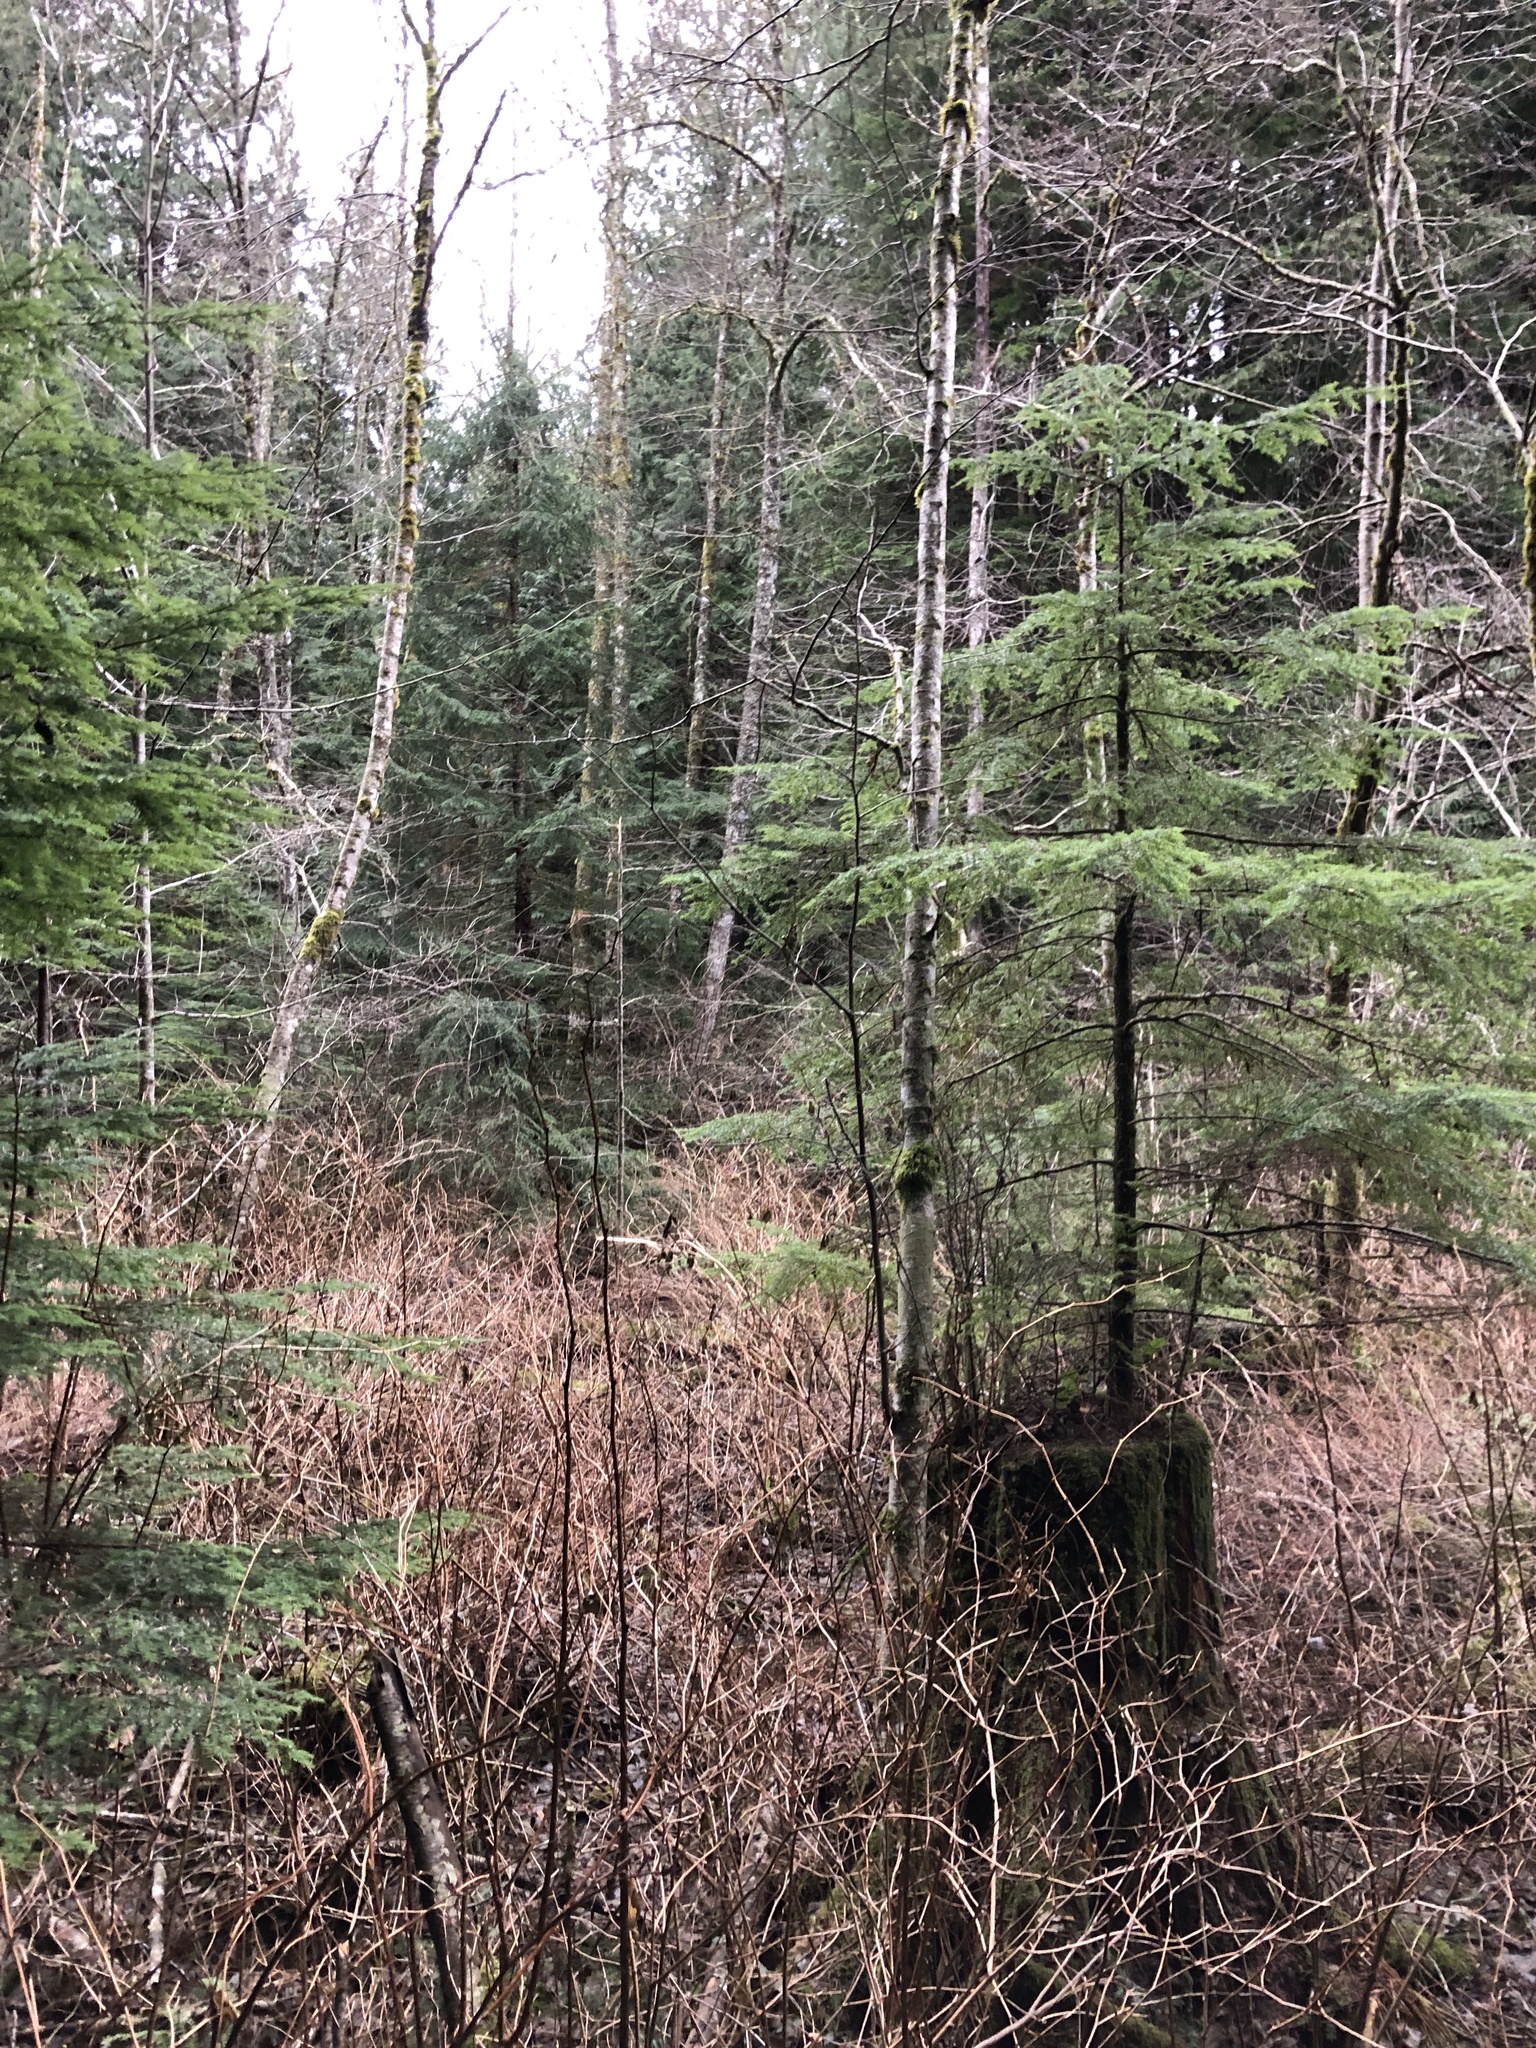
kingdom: Plantae
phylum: Tracheophyta
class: Pinopsida
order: Pinales
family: Pinaceae
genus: Tsuga
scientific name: Tsuga heterophylla
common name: Western hemlock
